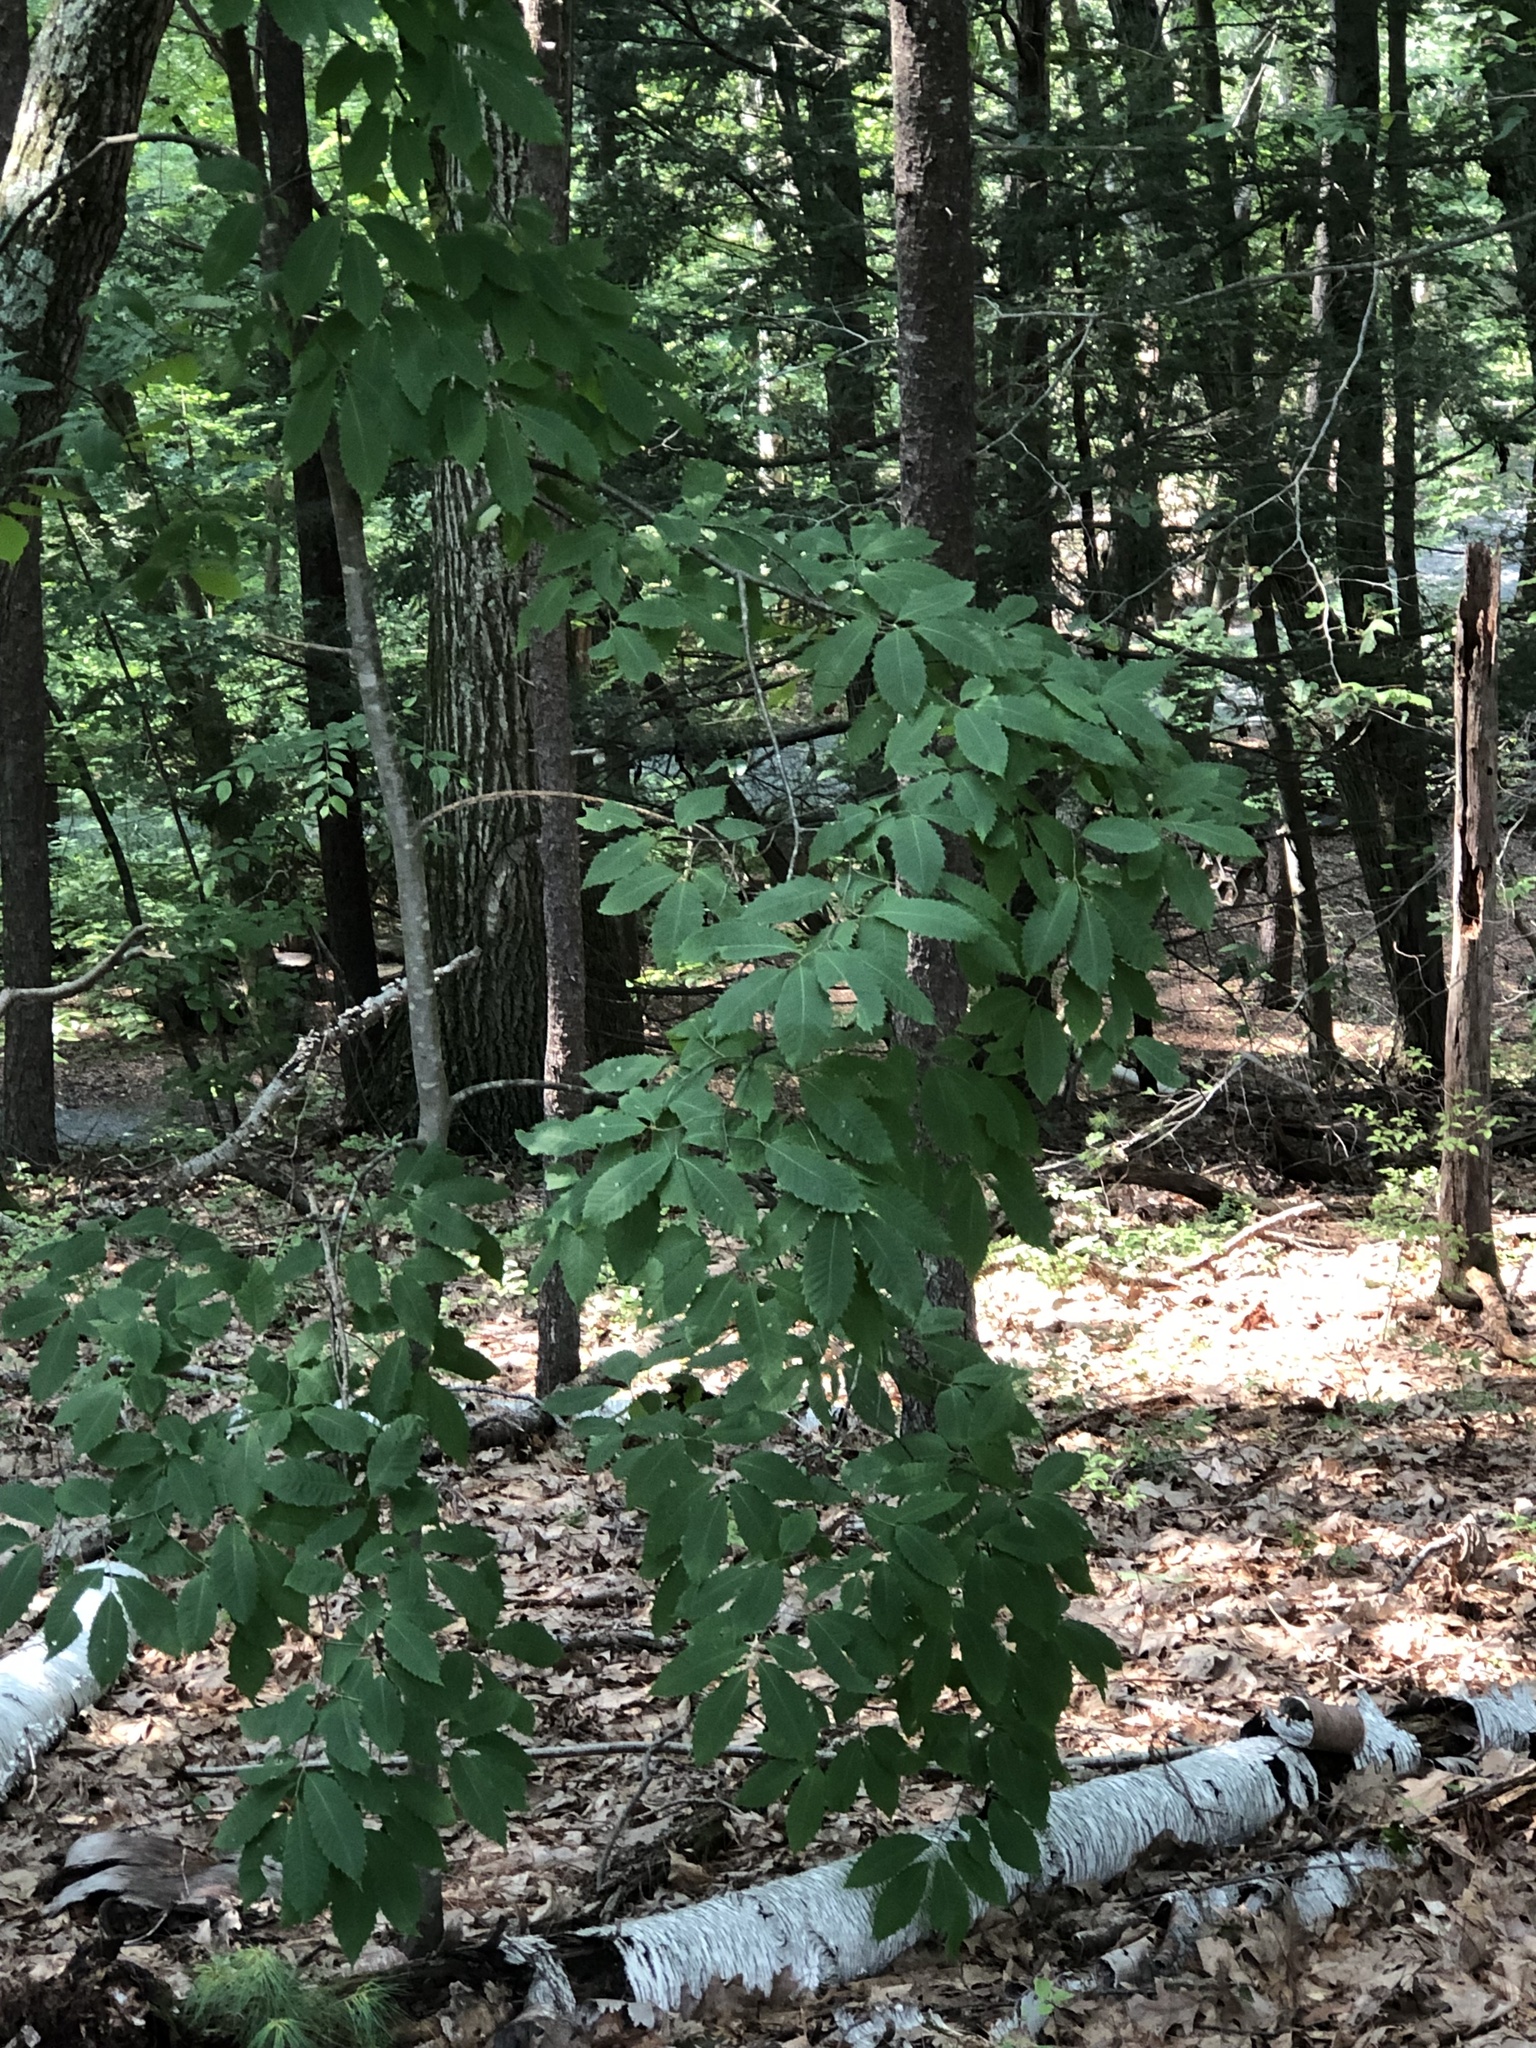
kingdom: Plantae
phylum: Tracheophyta
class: Magnoliopsida
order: Fagales
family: Fagaceae
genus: Castanea
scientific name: Castanea dentata
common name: American chestnut
